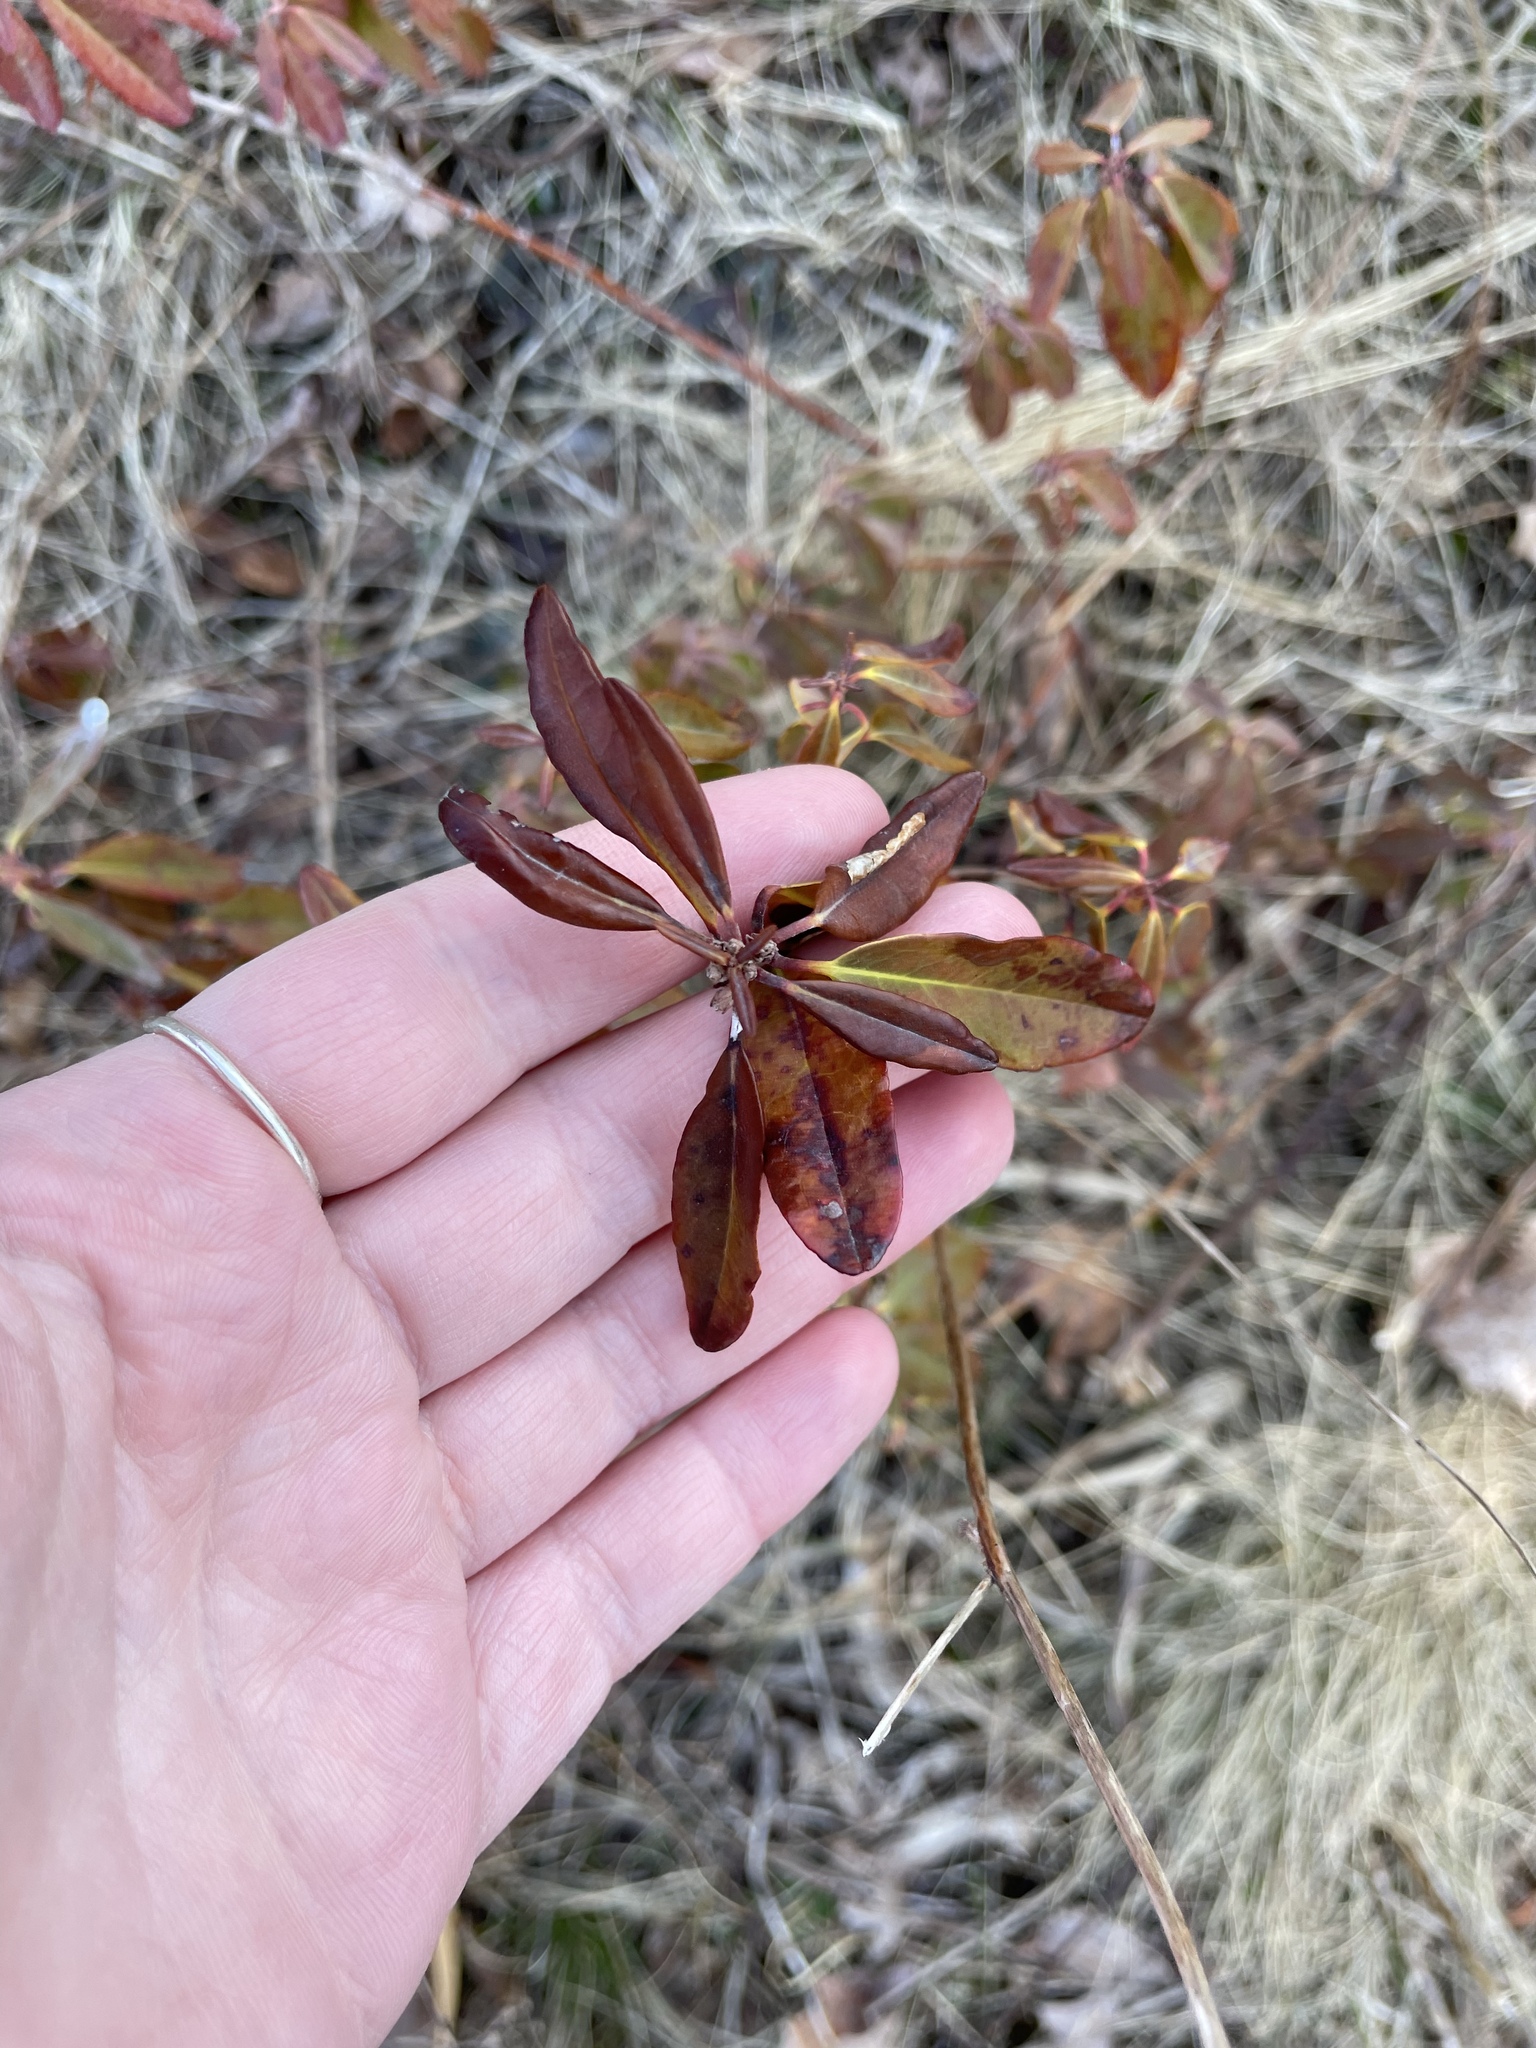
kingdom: Plantae
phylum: Tracheophyta
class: Magnoliopsida
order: Ericales
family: Ericaceae
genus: Kalmia
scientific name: Kalmia angustifolia
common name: Sheep-laurel
